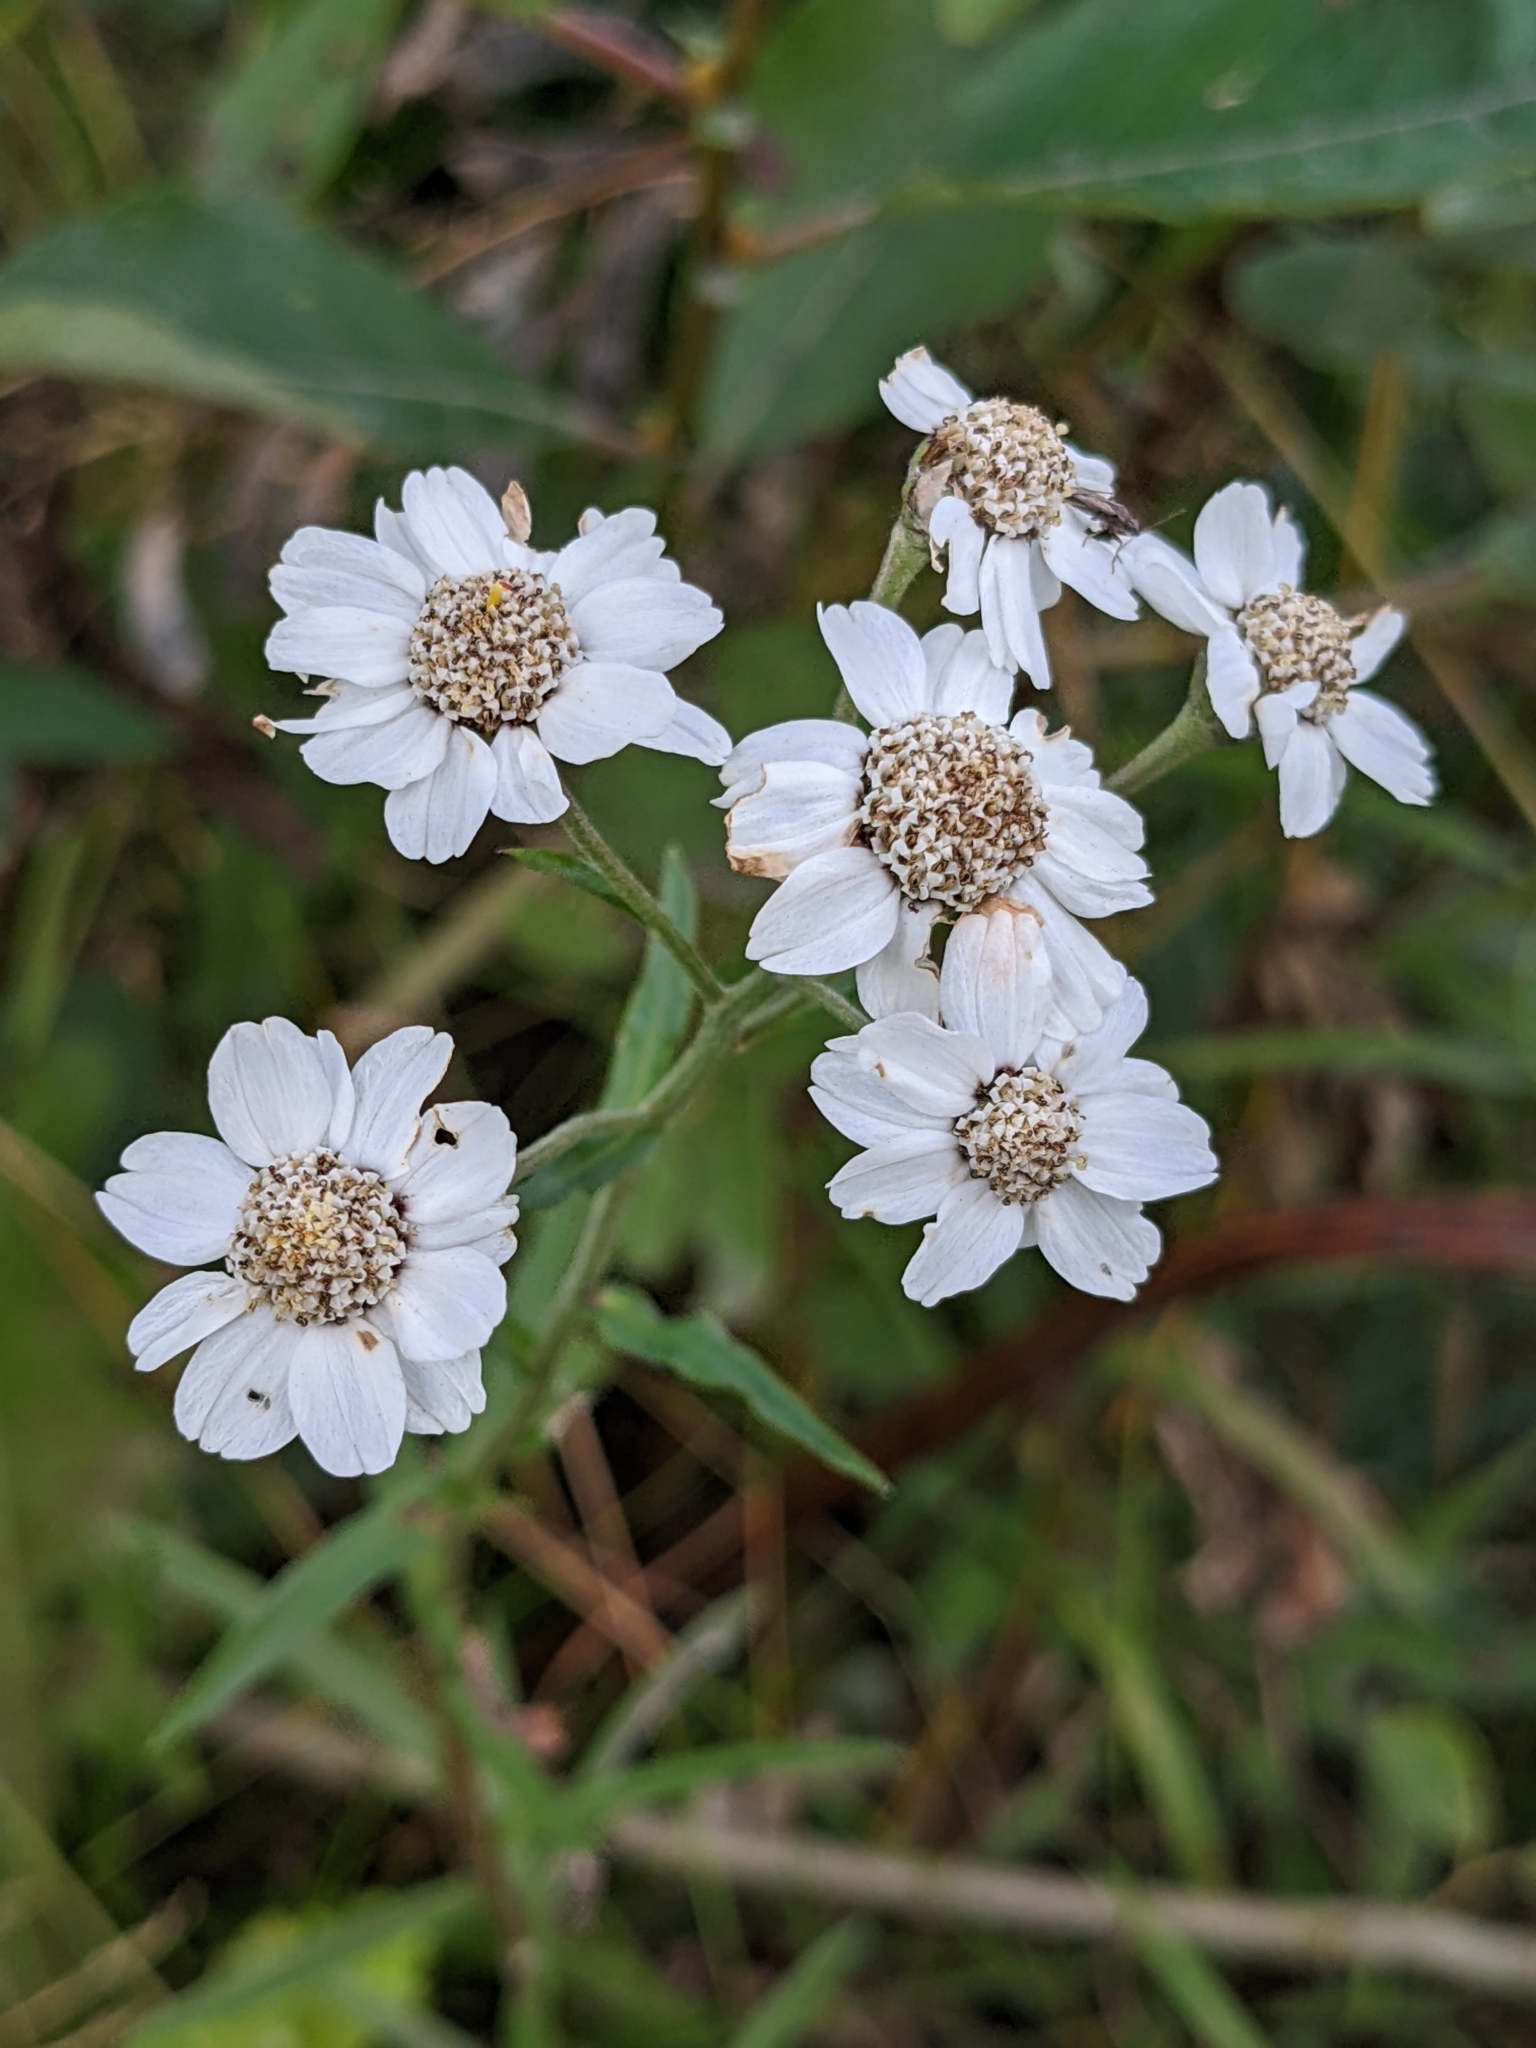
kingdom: Plantae
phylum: Tracheophyta
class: Magnoliopsida
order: Asterales
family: Asteraceae
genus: Achillea
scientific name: Achillea ptarmica
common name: Sneezeweed
